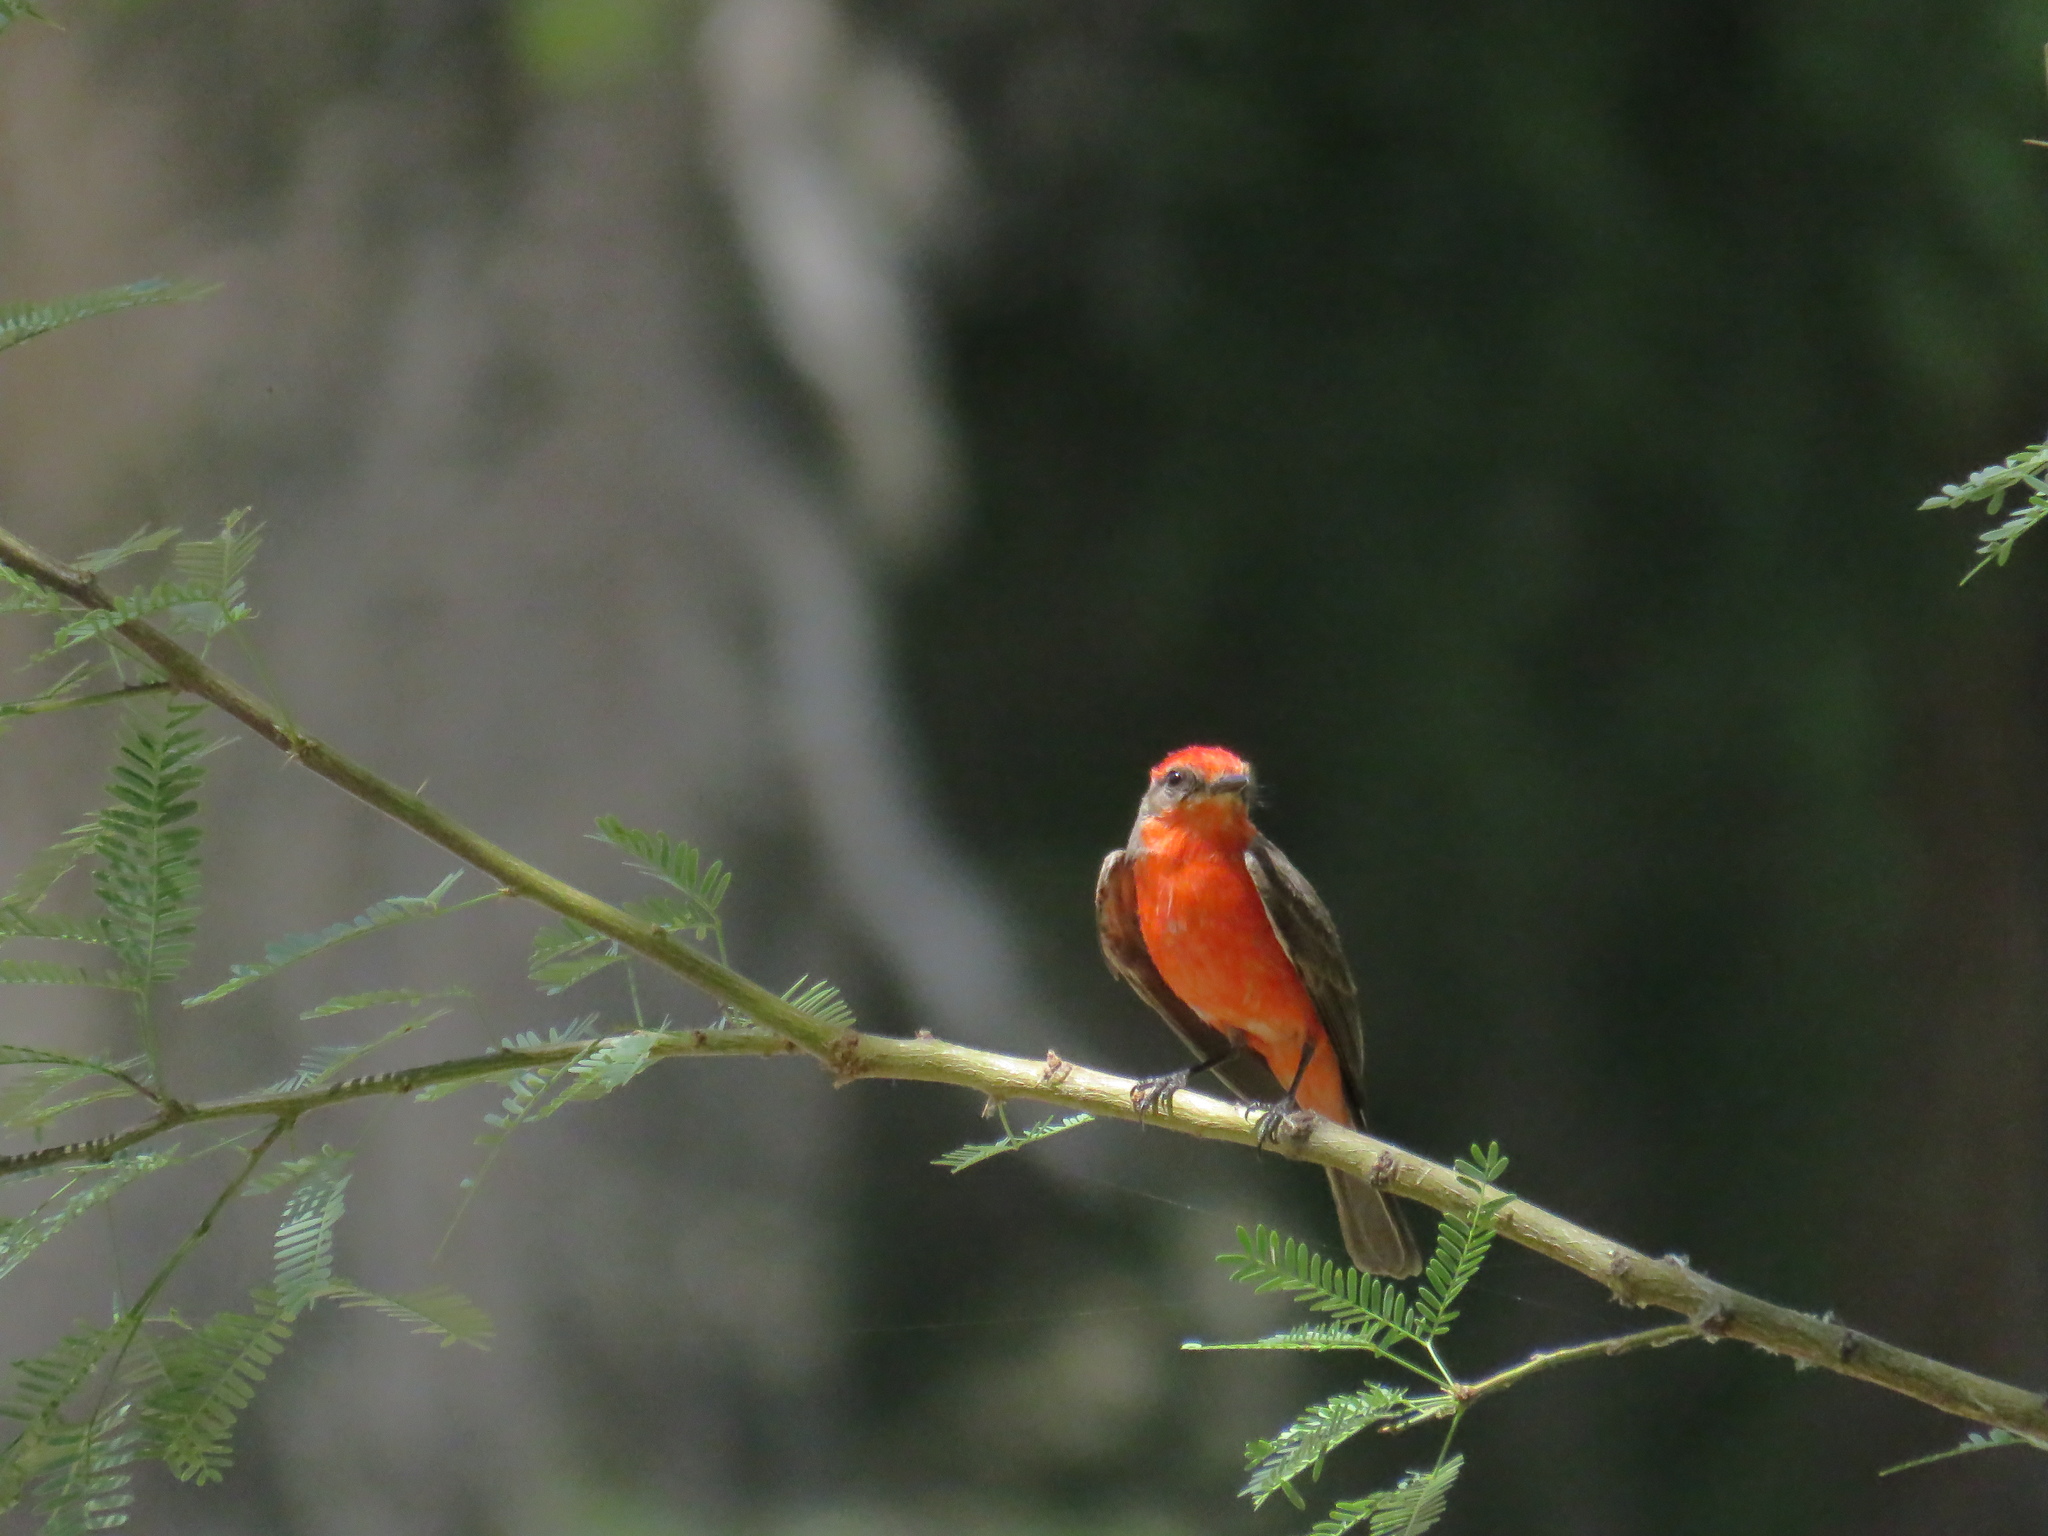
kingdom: Animalia
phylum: Chordata
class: Aves
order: Passeriformes
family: Tyrannidae
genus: Pyrocephalus
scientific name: Pyrocephalus rubinus
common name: Vermilion flycatcher
